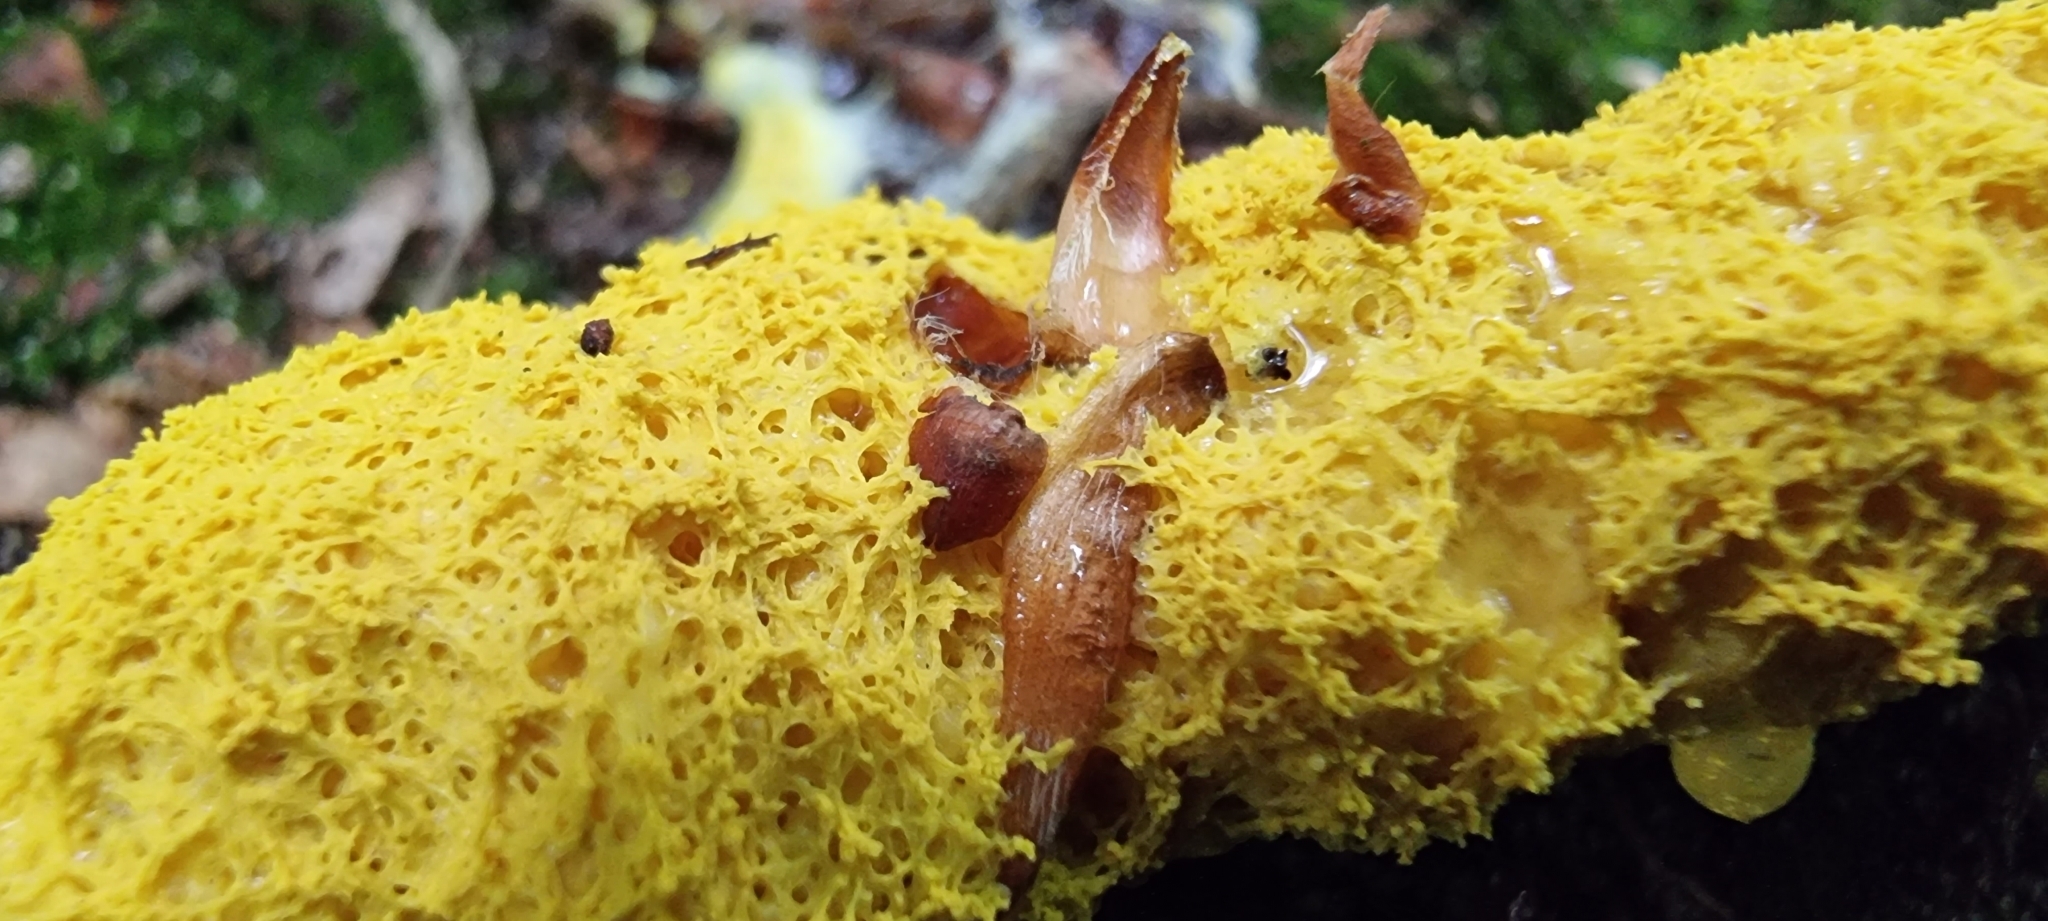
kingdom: Protozoa
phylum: Mycetozoa
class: Myxomycetes
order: Physarales
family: Physaraceae
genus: Fuligo
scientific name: Fuligo septica
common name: Dog vomit slime mold
